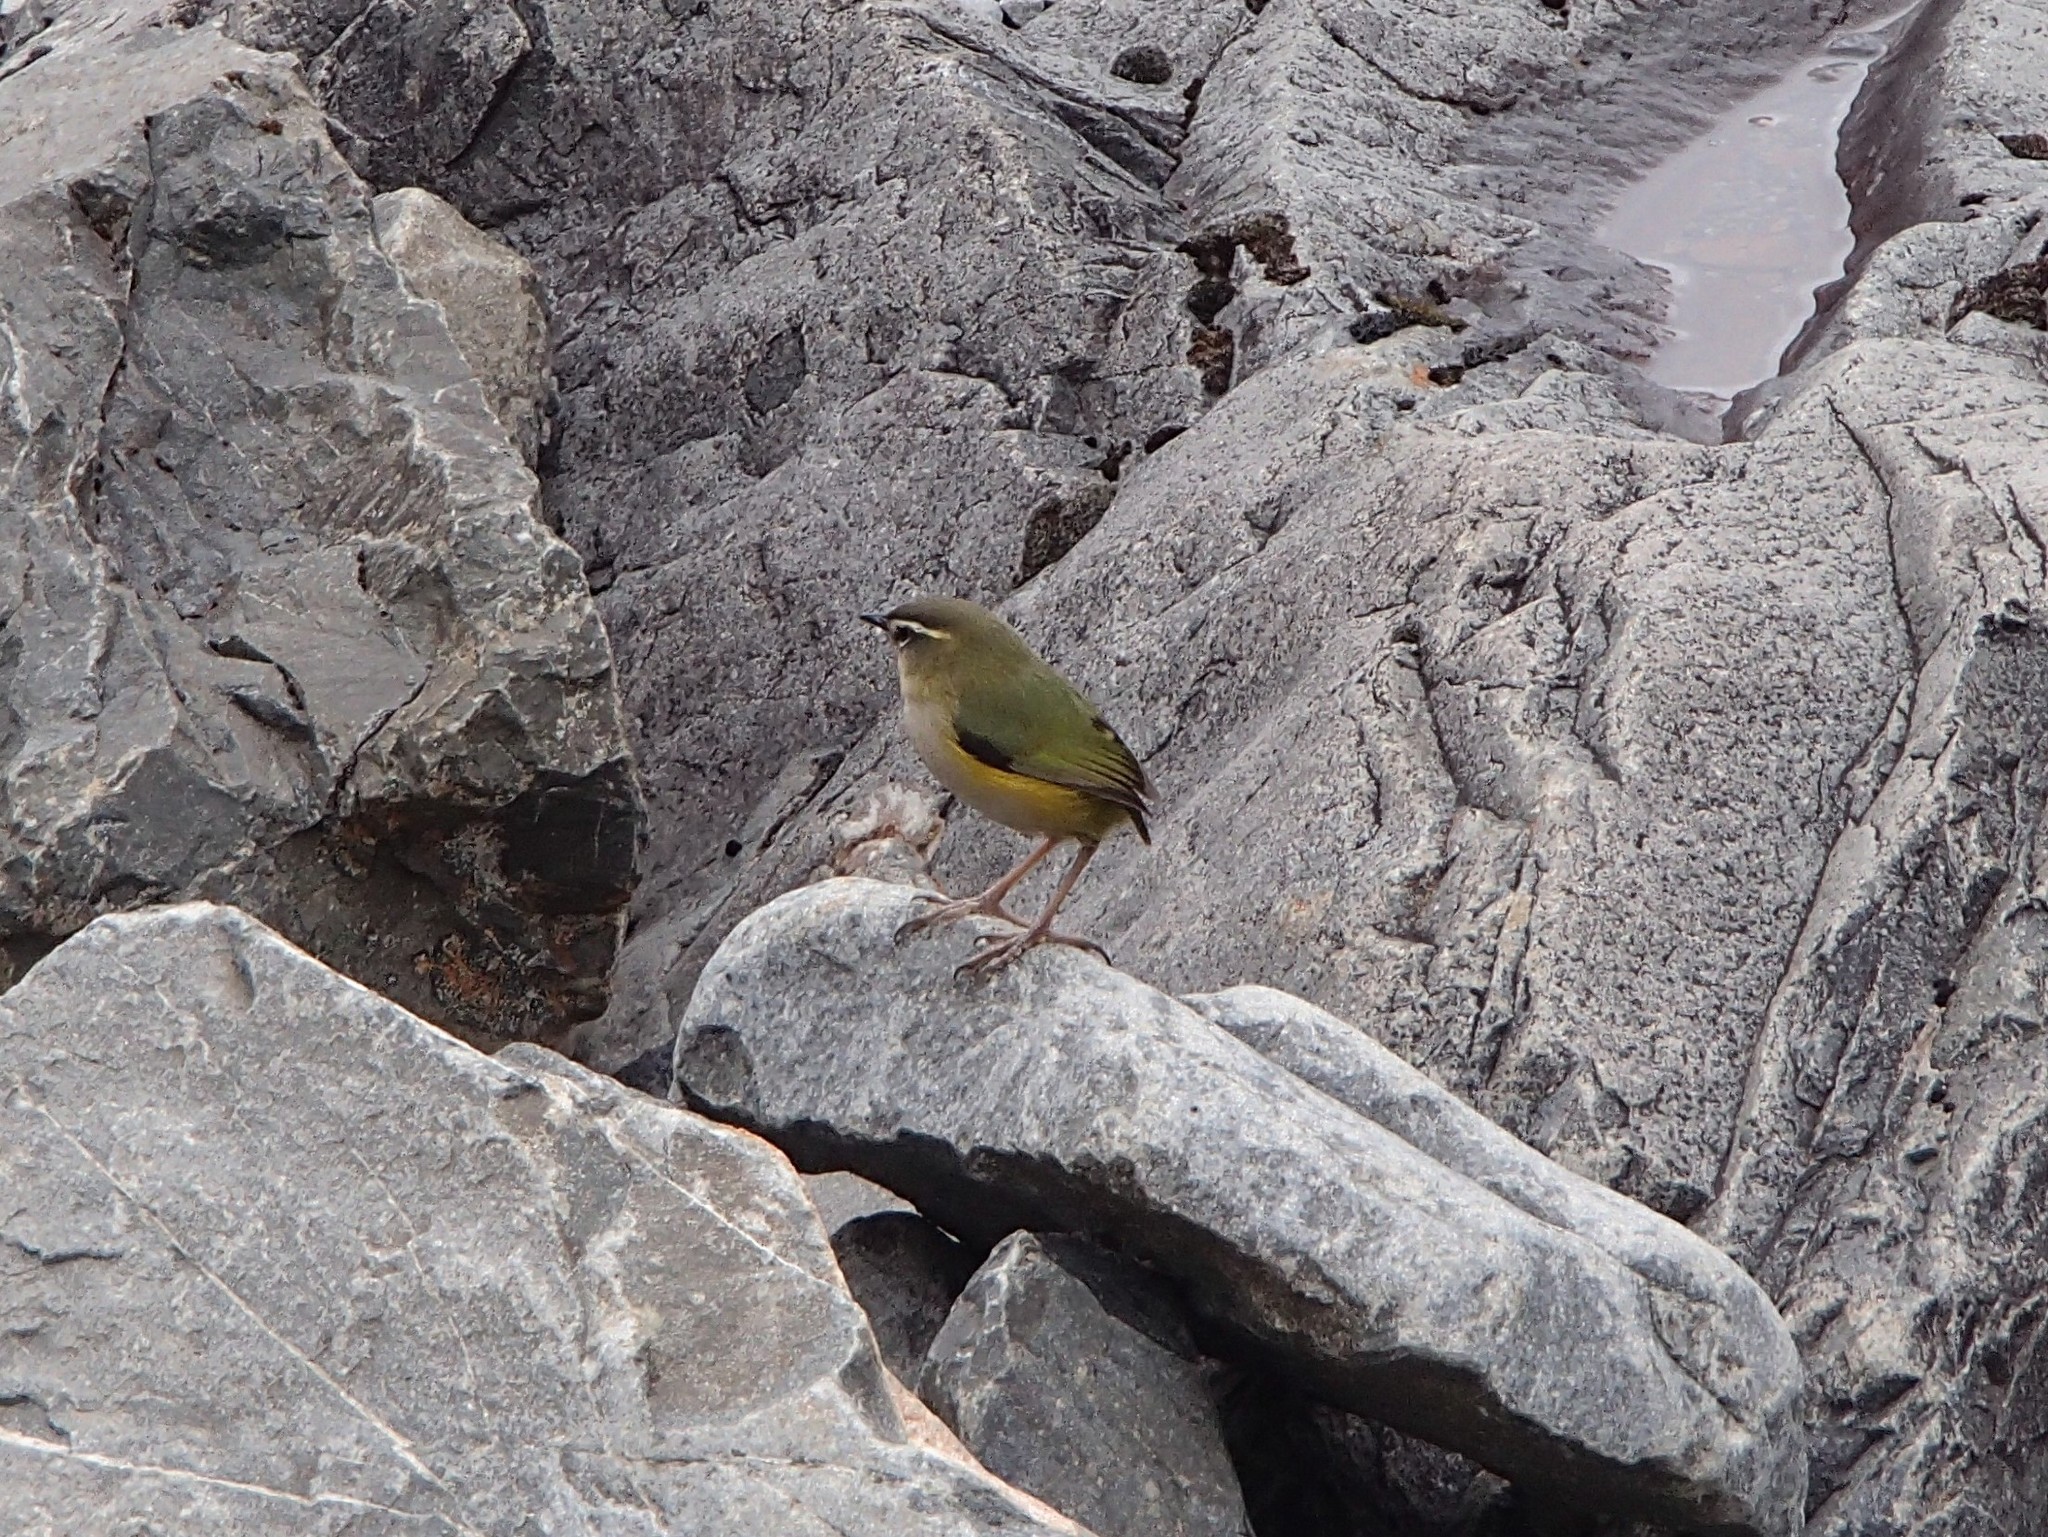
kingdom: Animalia
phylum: Chordata
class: Aves
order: Passeriformes
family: Acanthisittidae
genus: Xenicus
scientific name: Xenicus gilviventris
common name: New zealand rockwren
